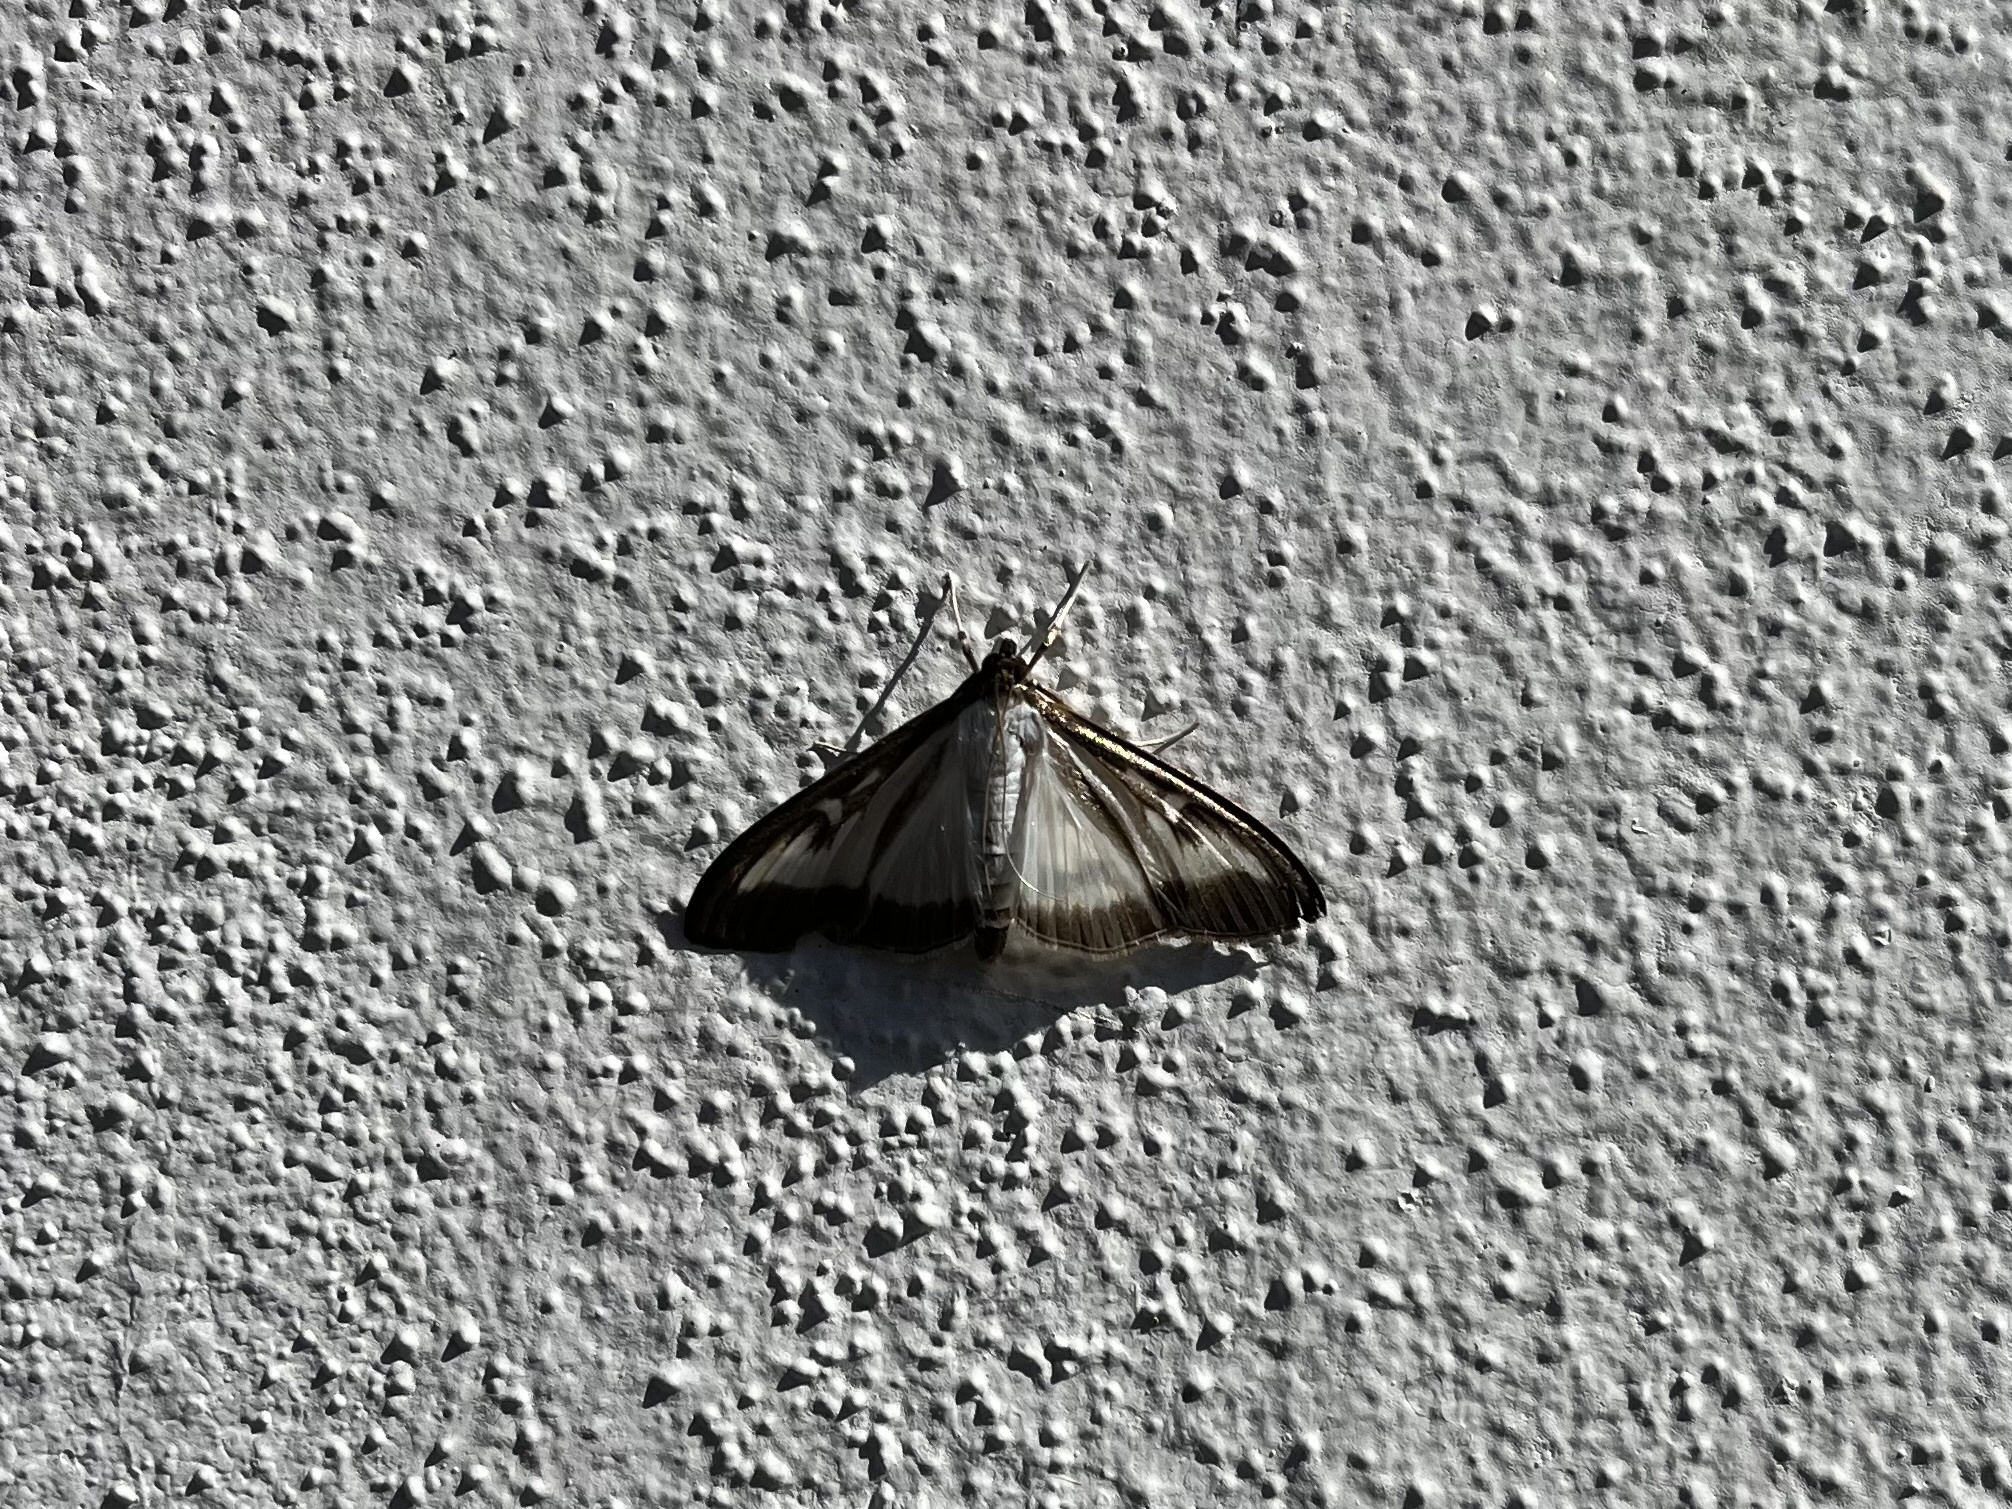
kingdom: Animalia
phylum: Arthropoda
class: Insecta
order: Lepidoptera
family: Crambidae
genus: Cydalima
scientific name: Cydalima perspectalis
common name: Box tree moth
